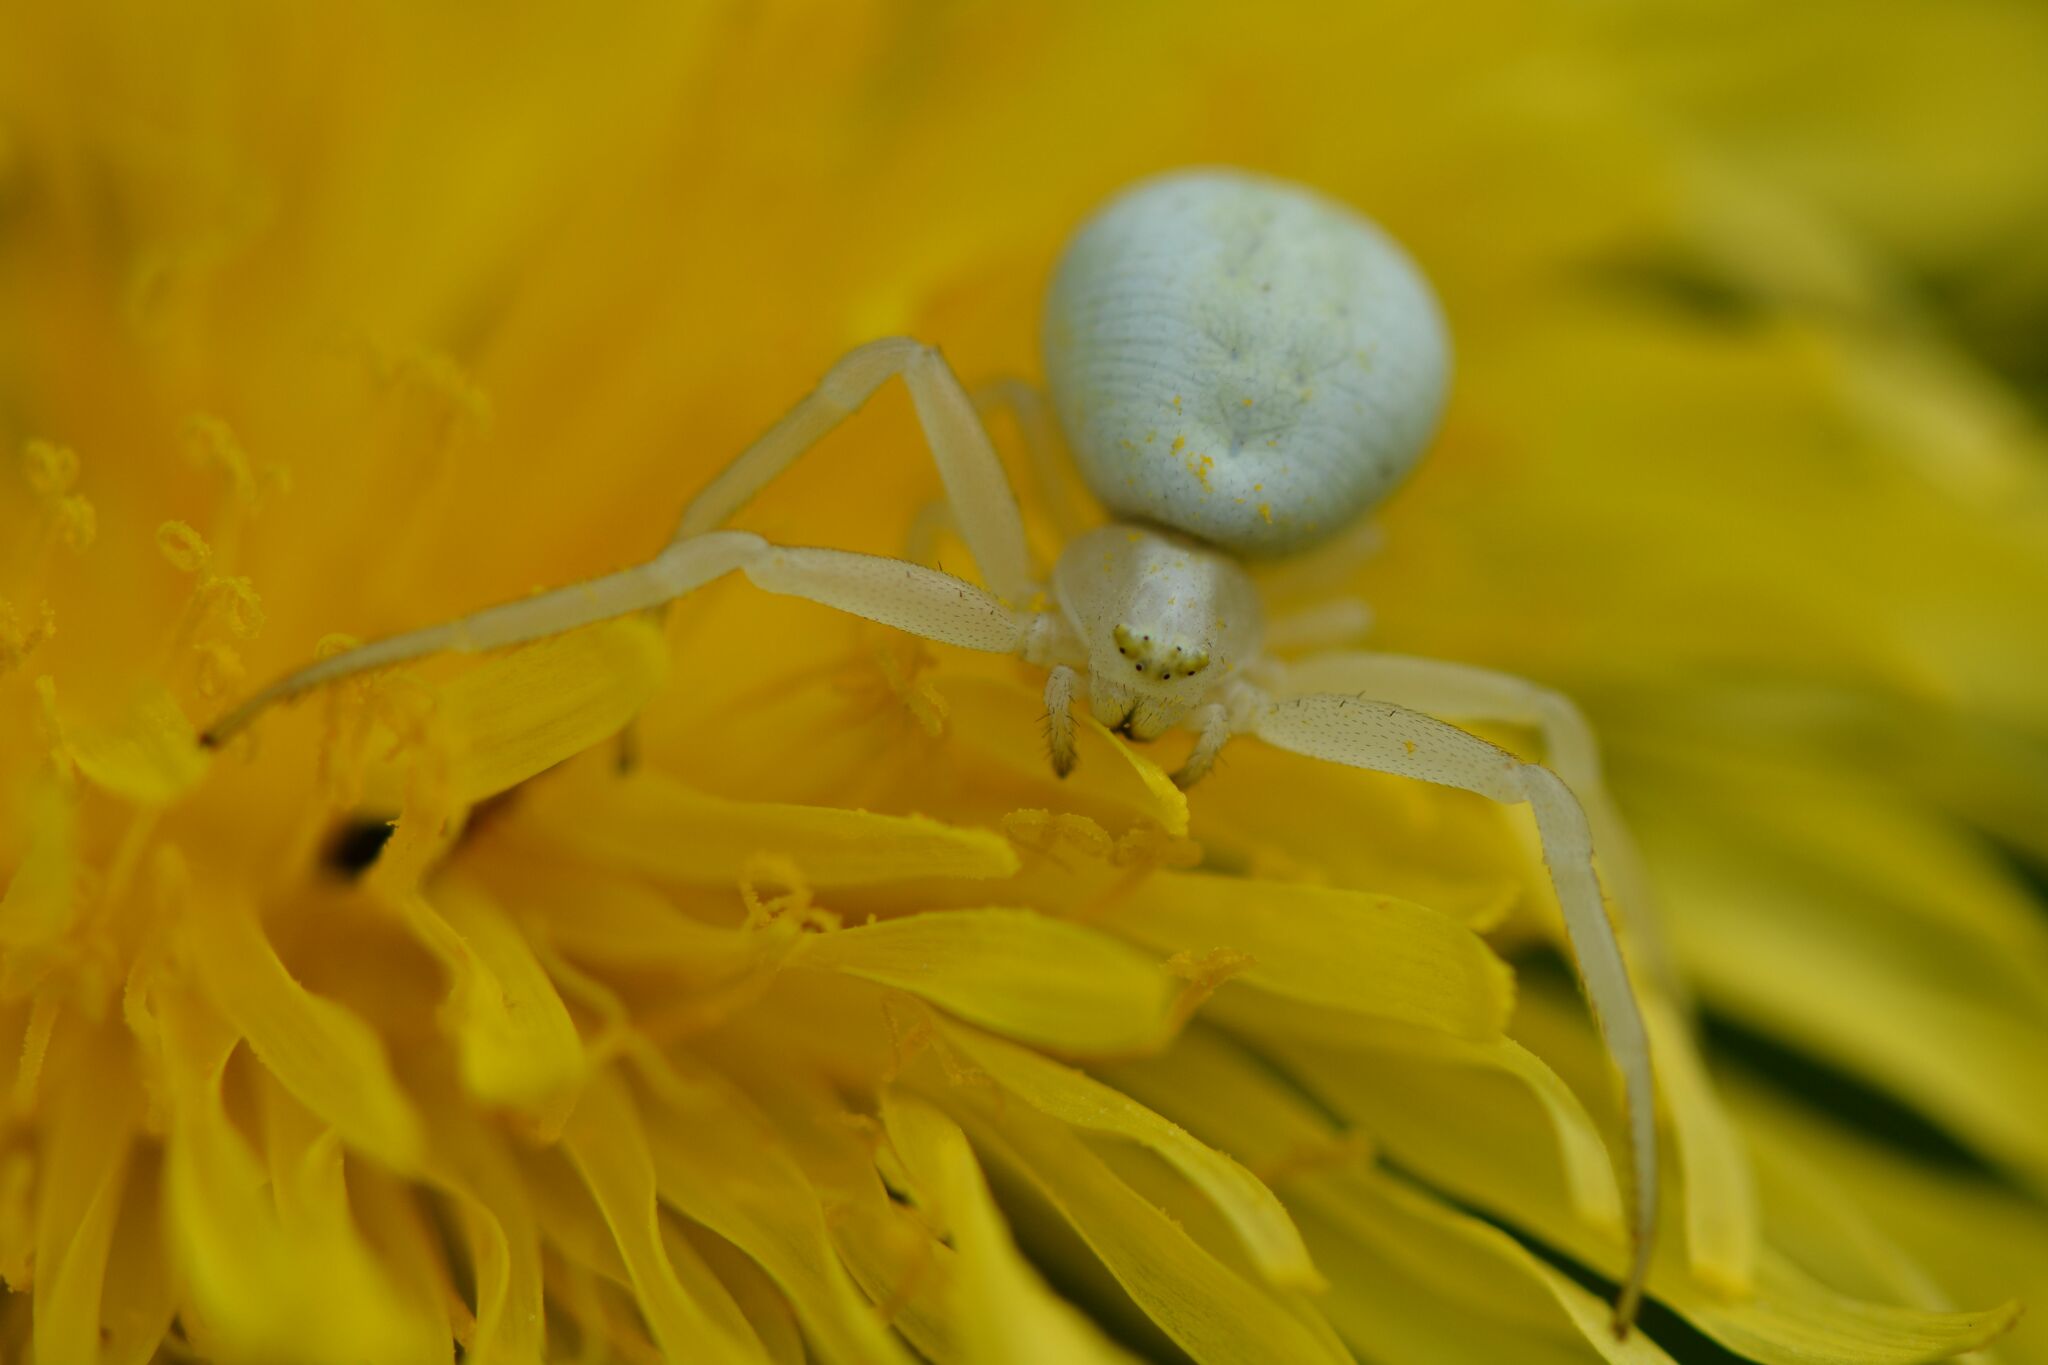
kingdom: Animalia
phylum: Arthropoda
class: Arachnida
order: Araneae
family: Thomisidae
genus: Misumena
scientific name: Misumena vatia
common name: Goldenrod crab spider
